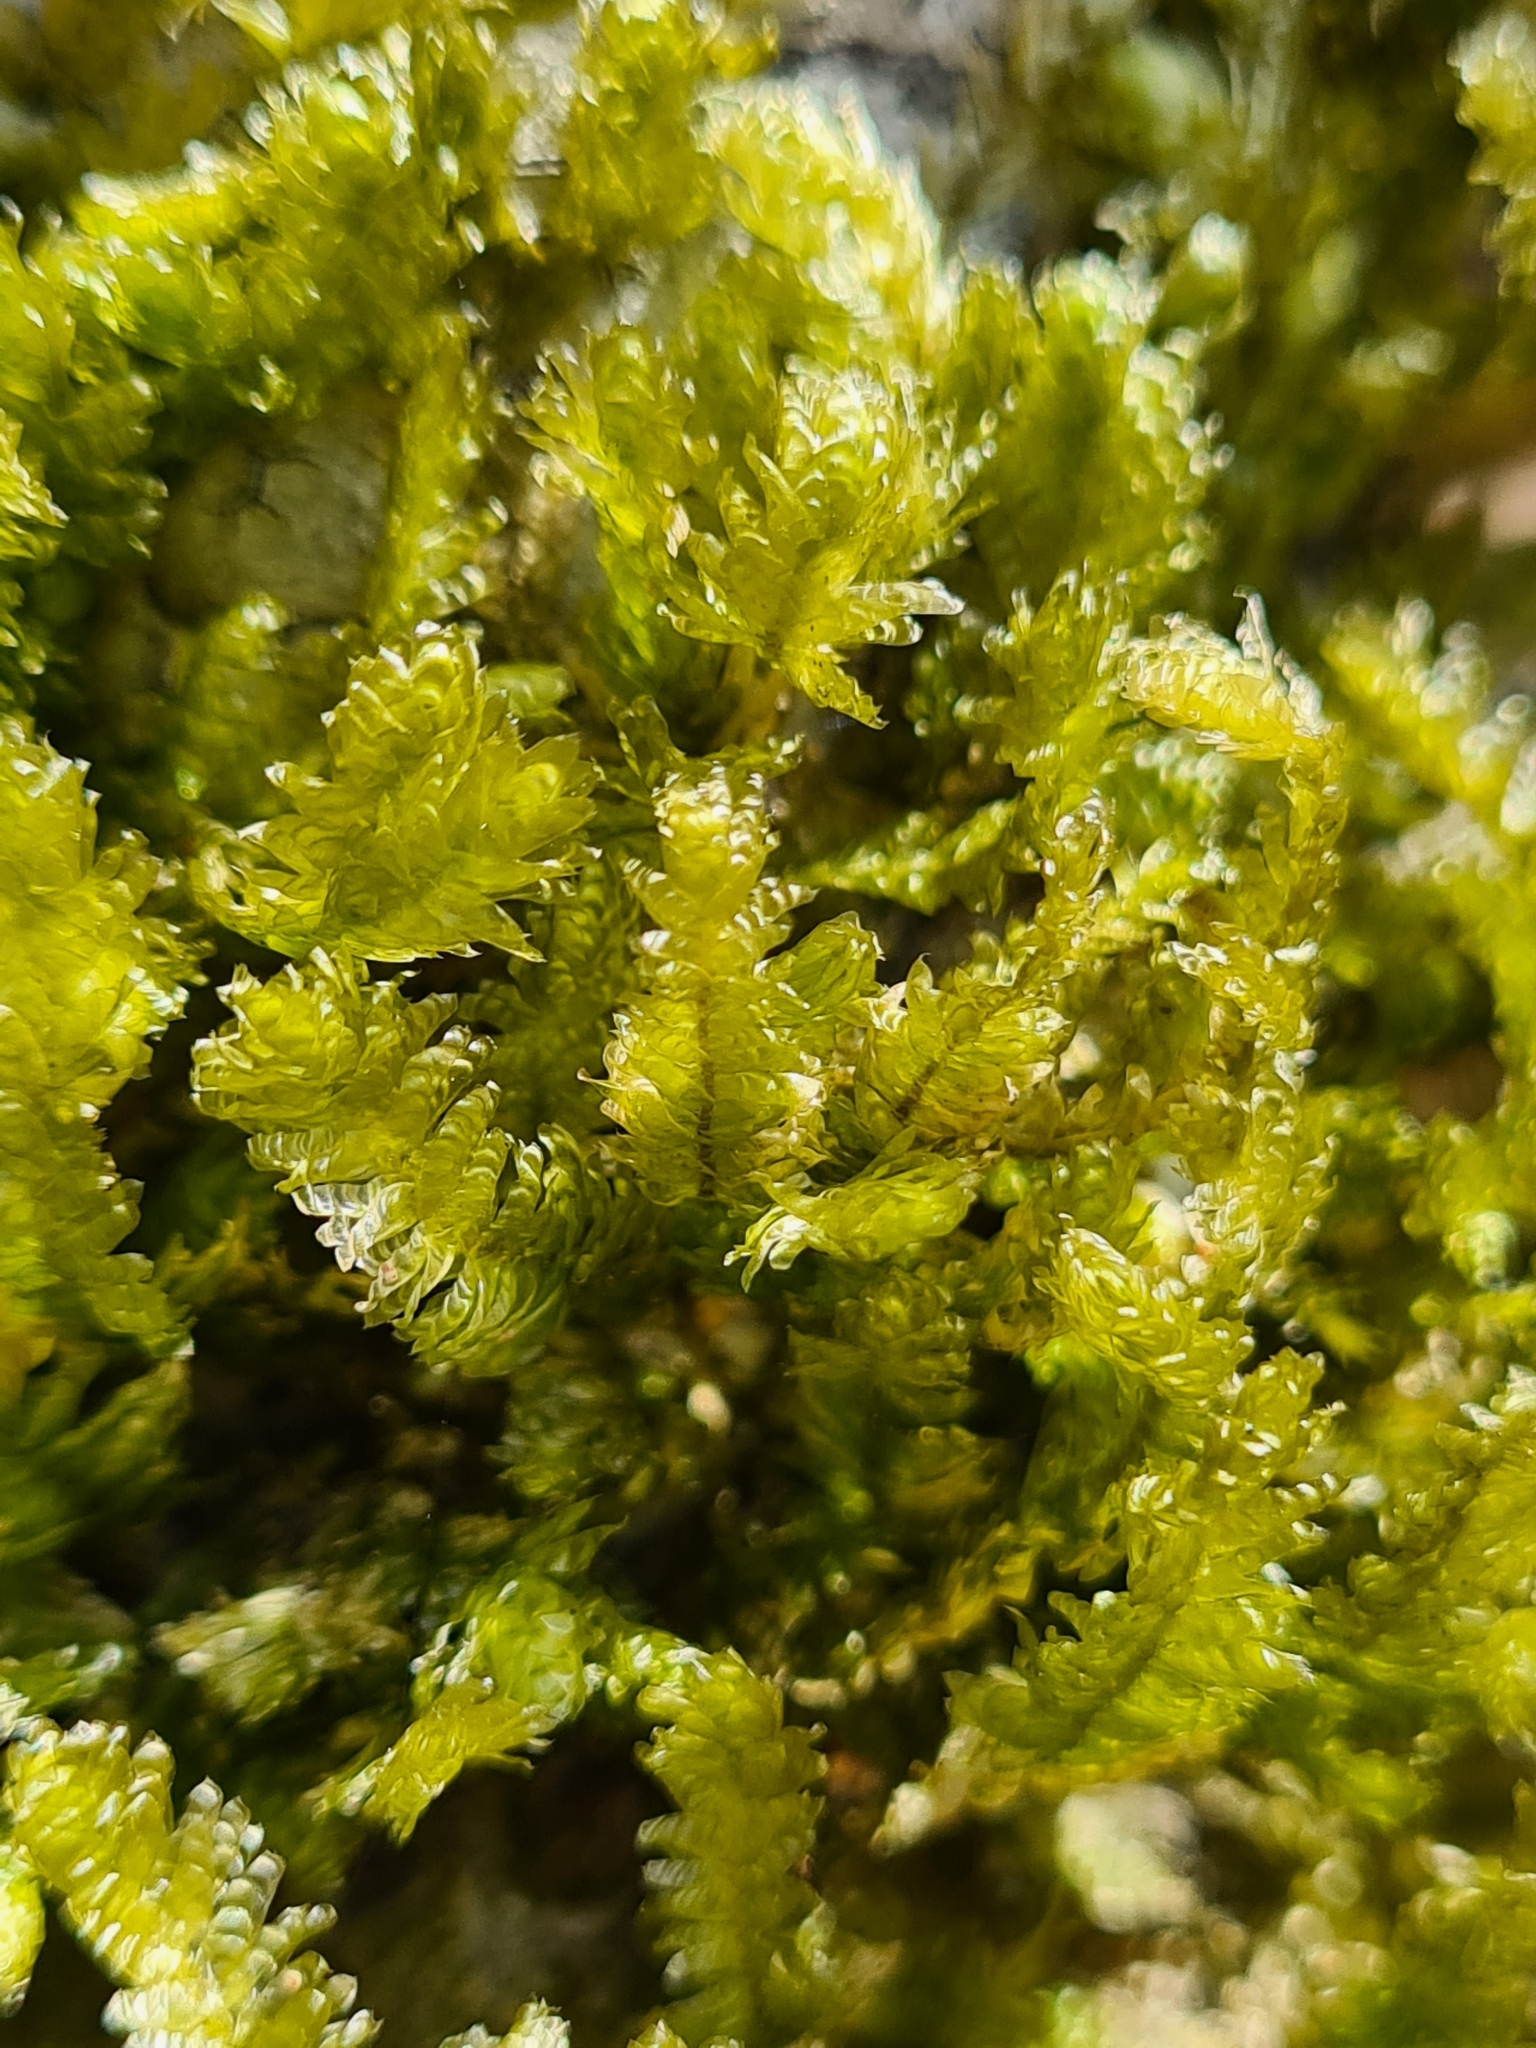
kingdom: Plantae
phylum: Bryophyta
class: Bryopsida
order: Hypnales
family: Neckeraceae
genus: Exsertotheca
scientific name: Exsertotheca crispa
